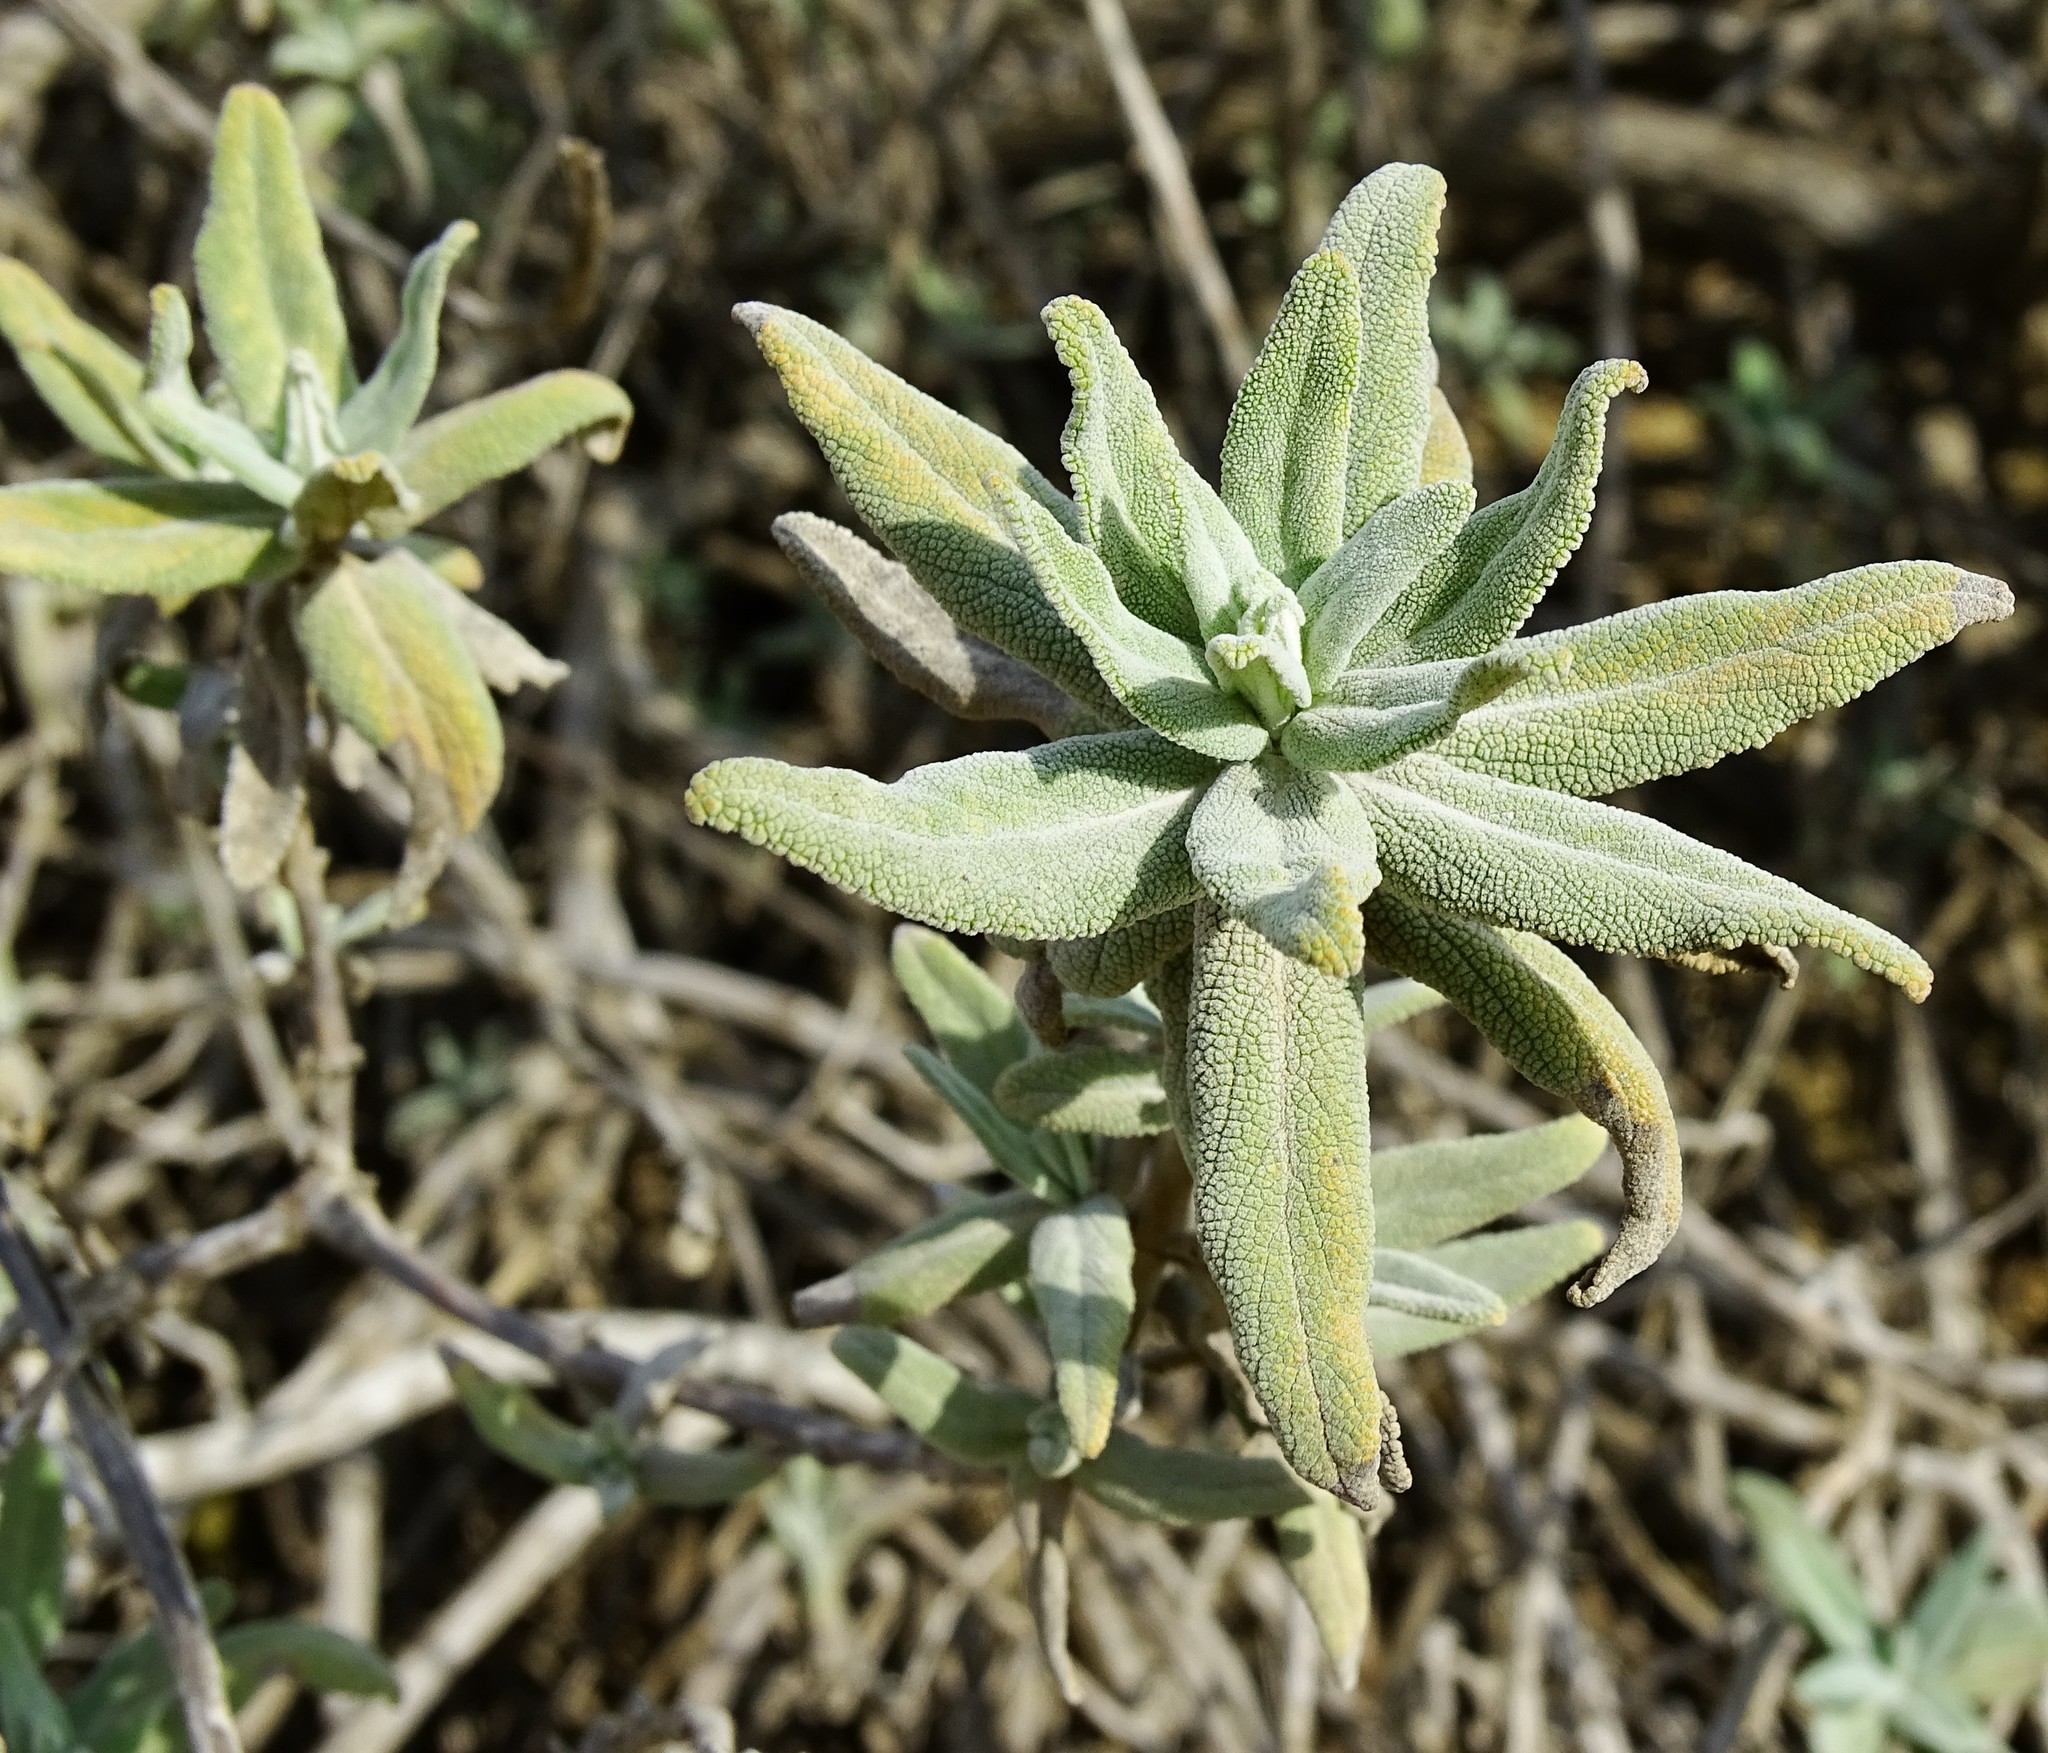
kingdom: Plantae
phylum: Tracheophyta
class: Magnoliopsida
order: Lamiales
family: Lamiaceae
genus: Salvia
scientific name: Salvia leucophylla
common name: Purple sage
